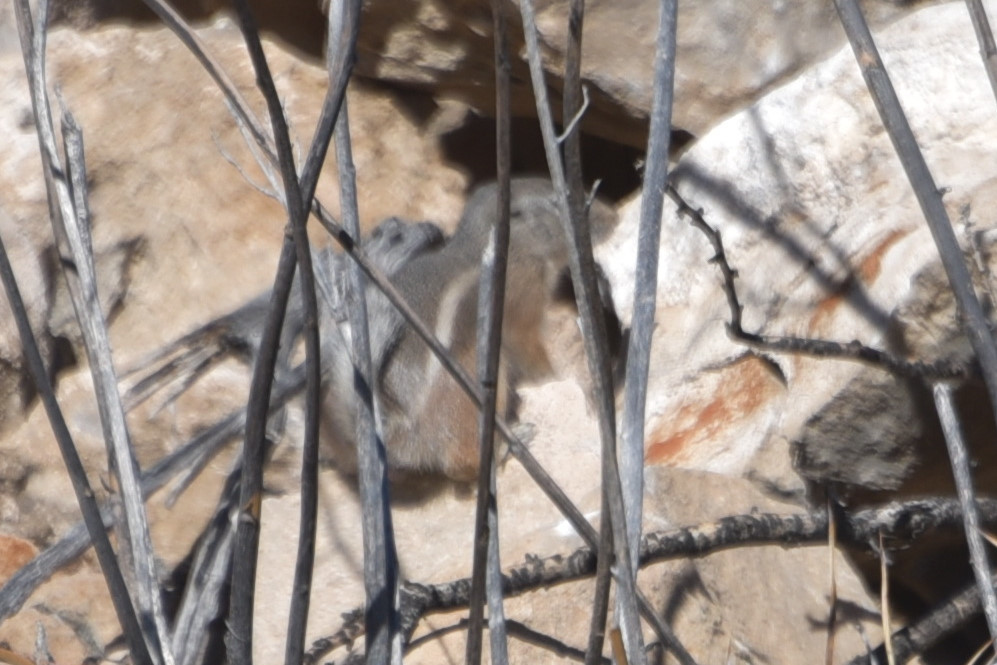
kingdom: Animalia
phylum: Chordata
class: Mammalia
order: Rodentia
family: Sciuridae
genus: Ammospermophilus
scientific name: Ammospermophilus interpres
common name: Texas antelope squirrel
